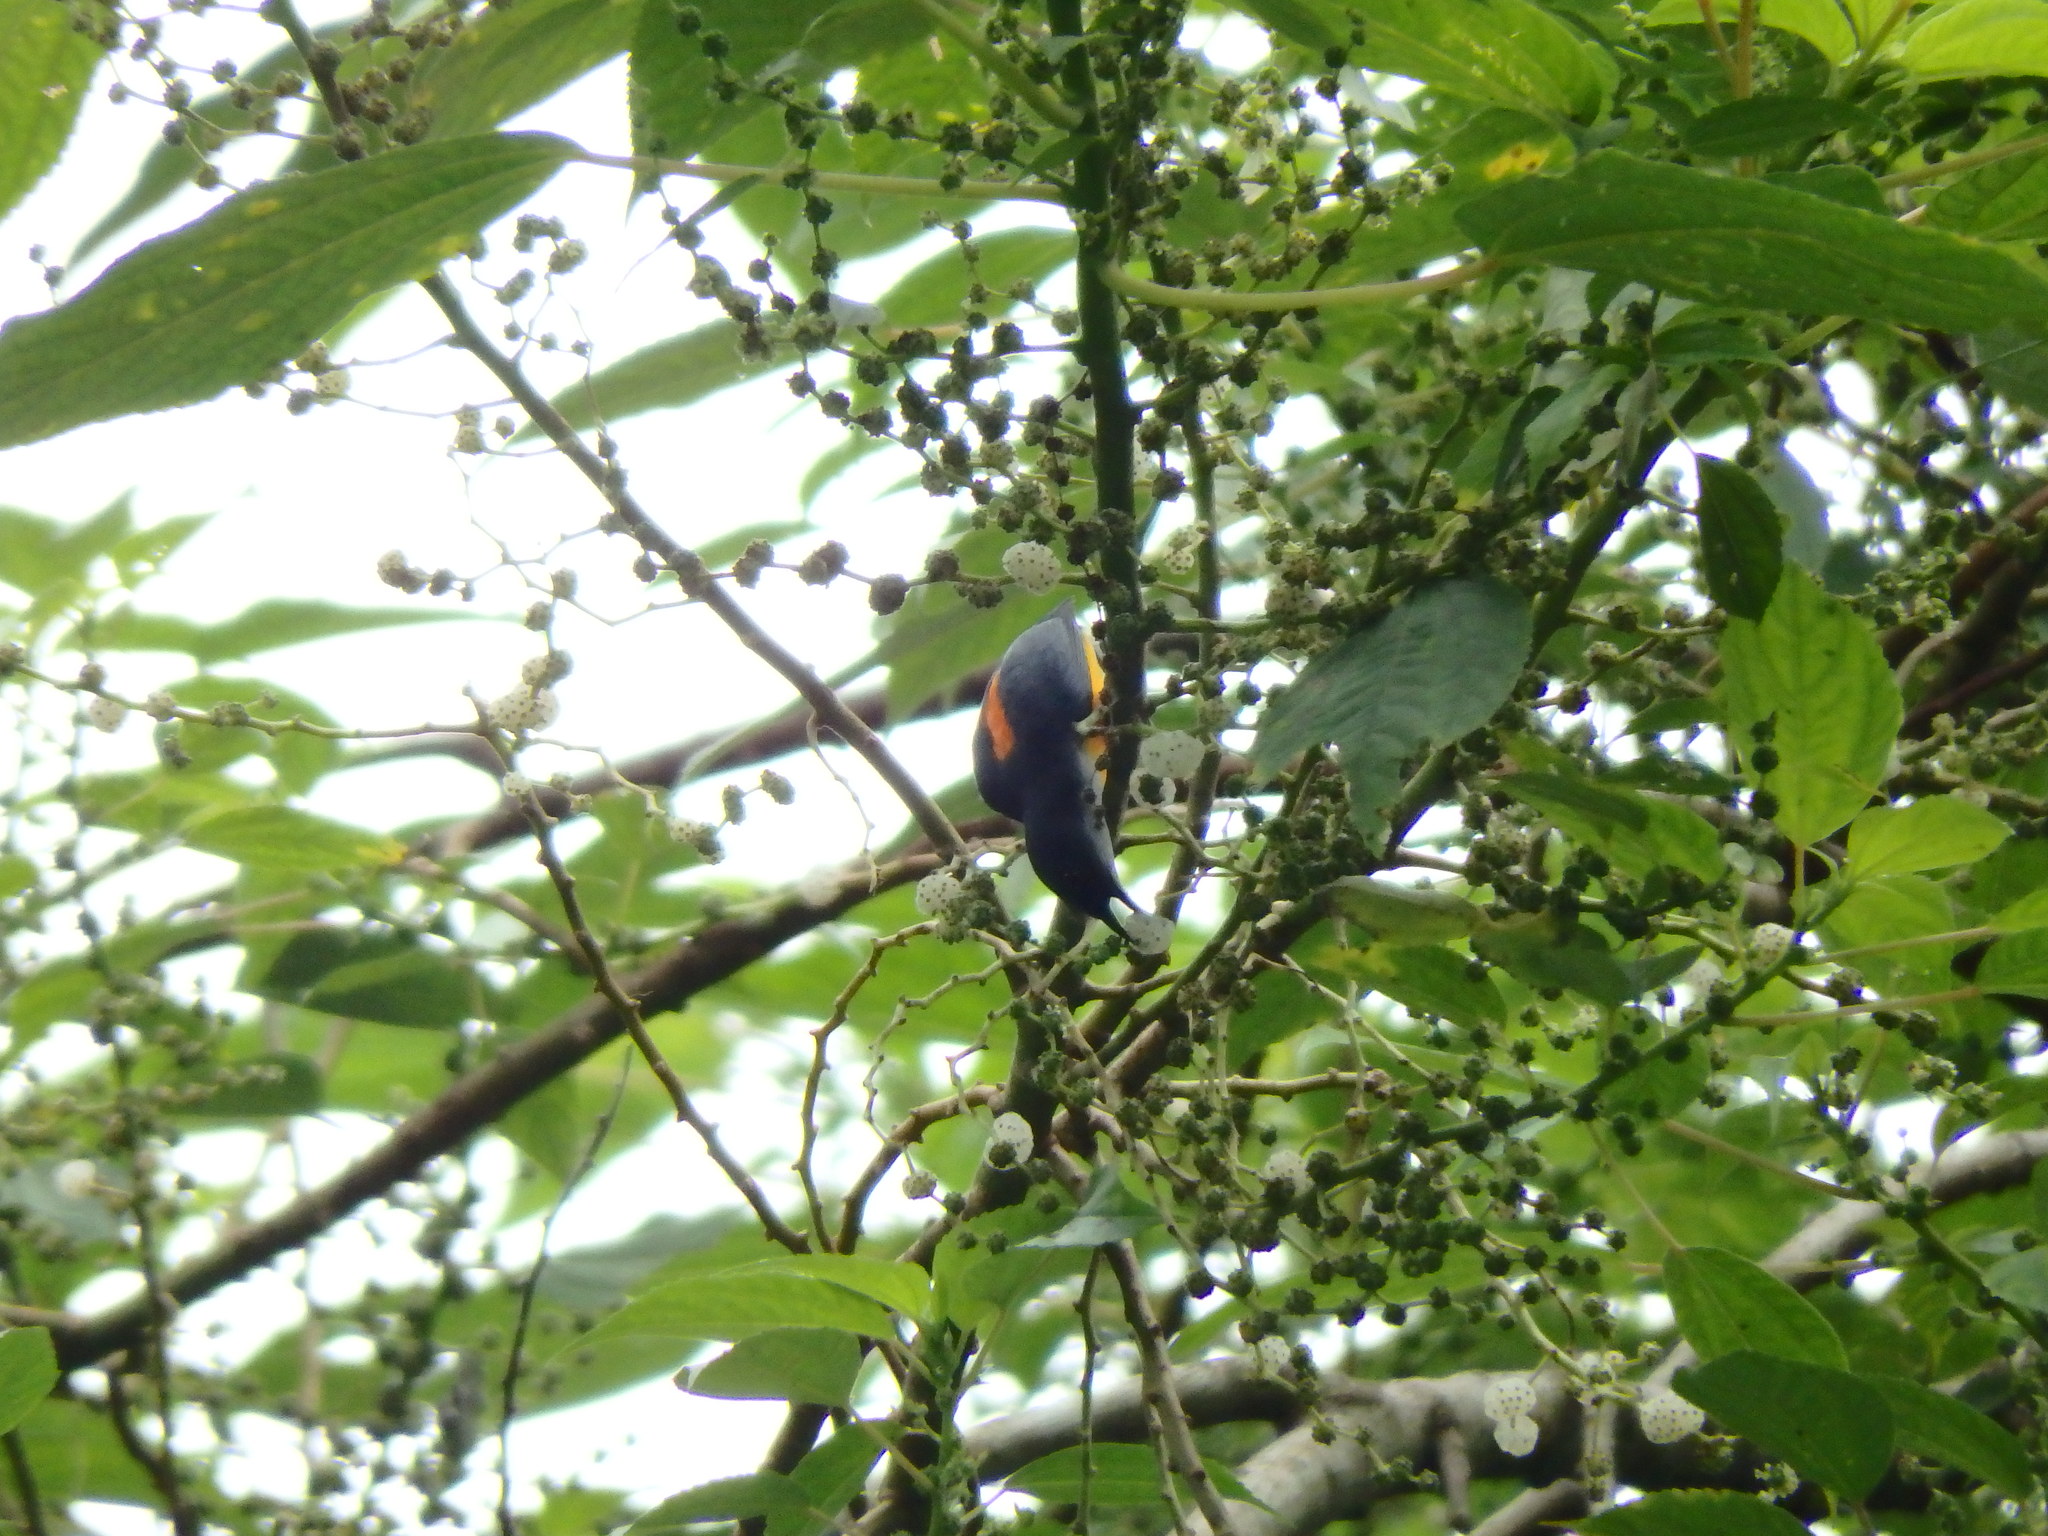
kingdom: Animalia
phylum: Chordata
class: Aves
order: Passeriformes
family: Dicaeidae
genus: Dicaeum
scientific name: Dicaeum trigonostigma
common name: Orange-bellied flowerpecker
